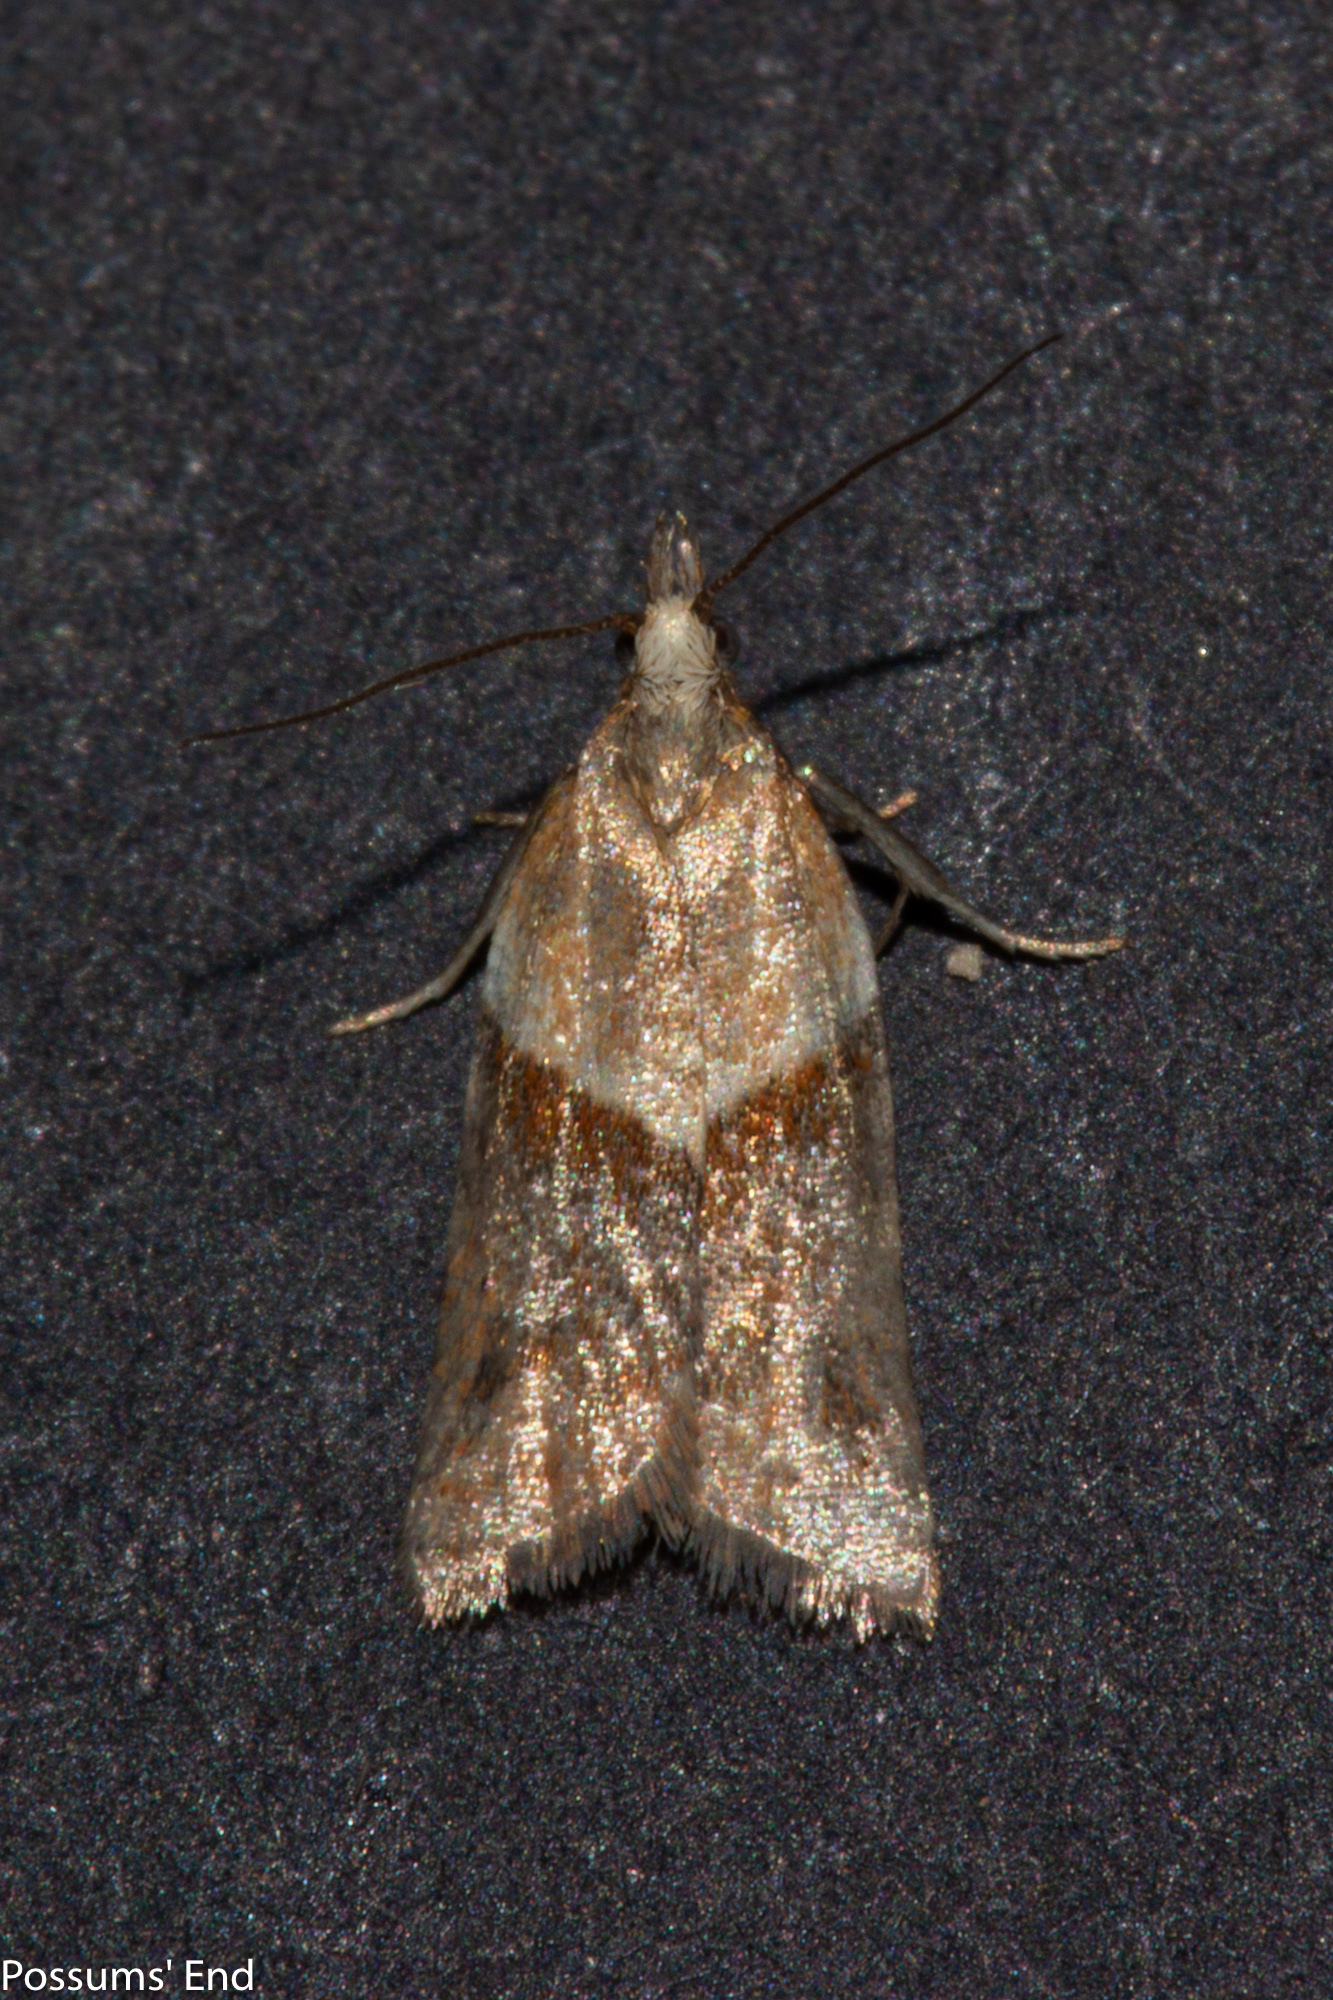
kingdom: Animalia
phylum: Arthropoda
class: Insecta
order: Lepidoptera
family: Tortricidae
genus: Epichorista
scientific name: Epichorista hemionana
